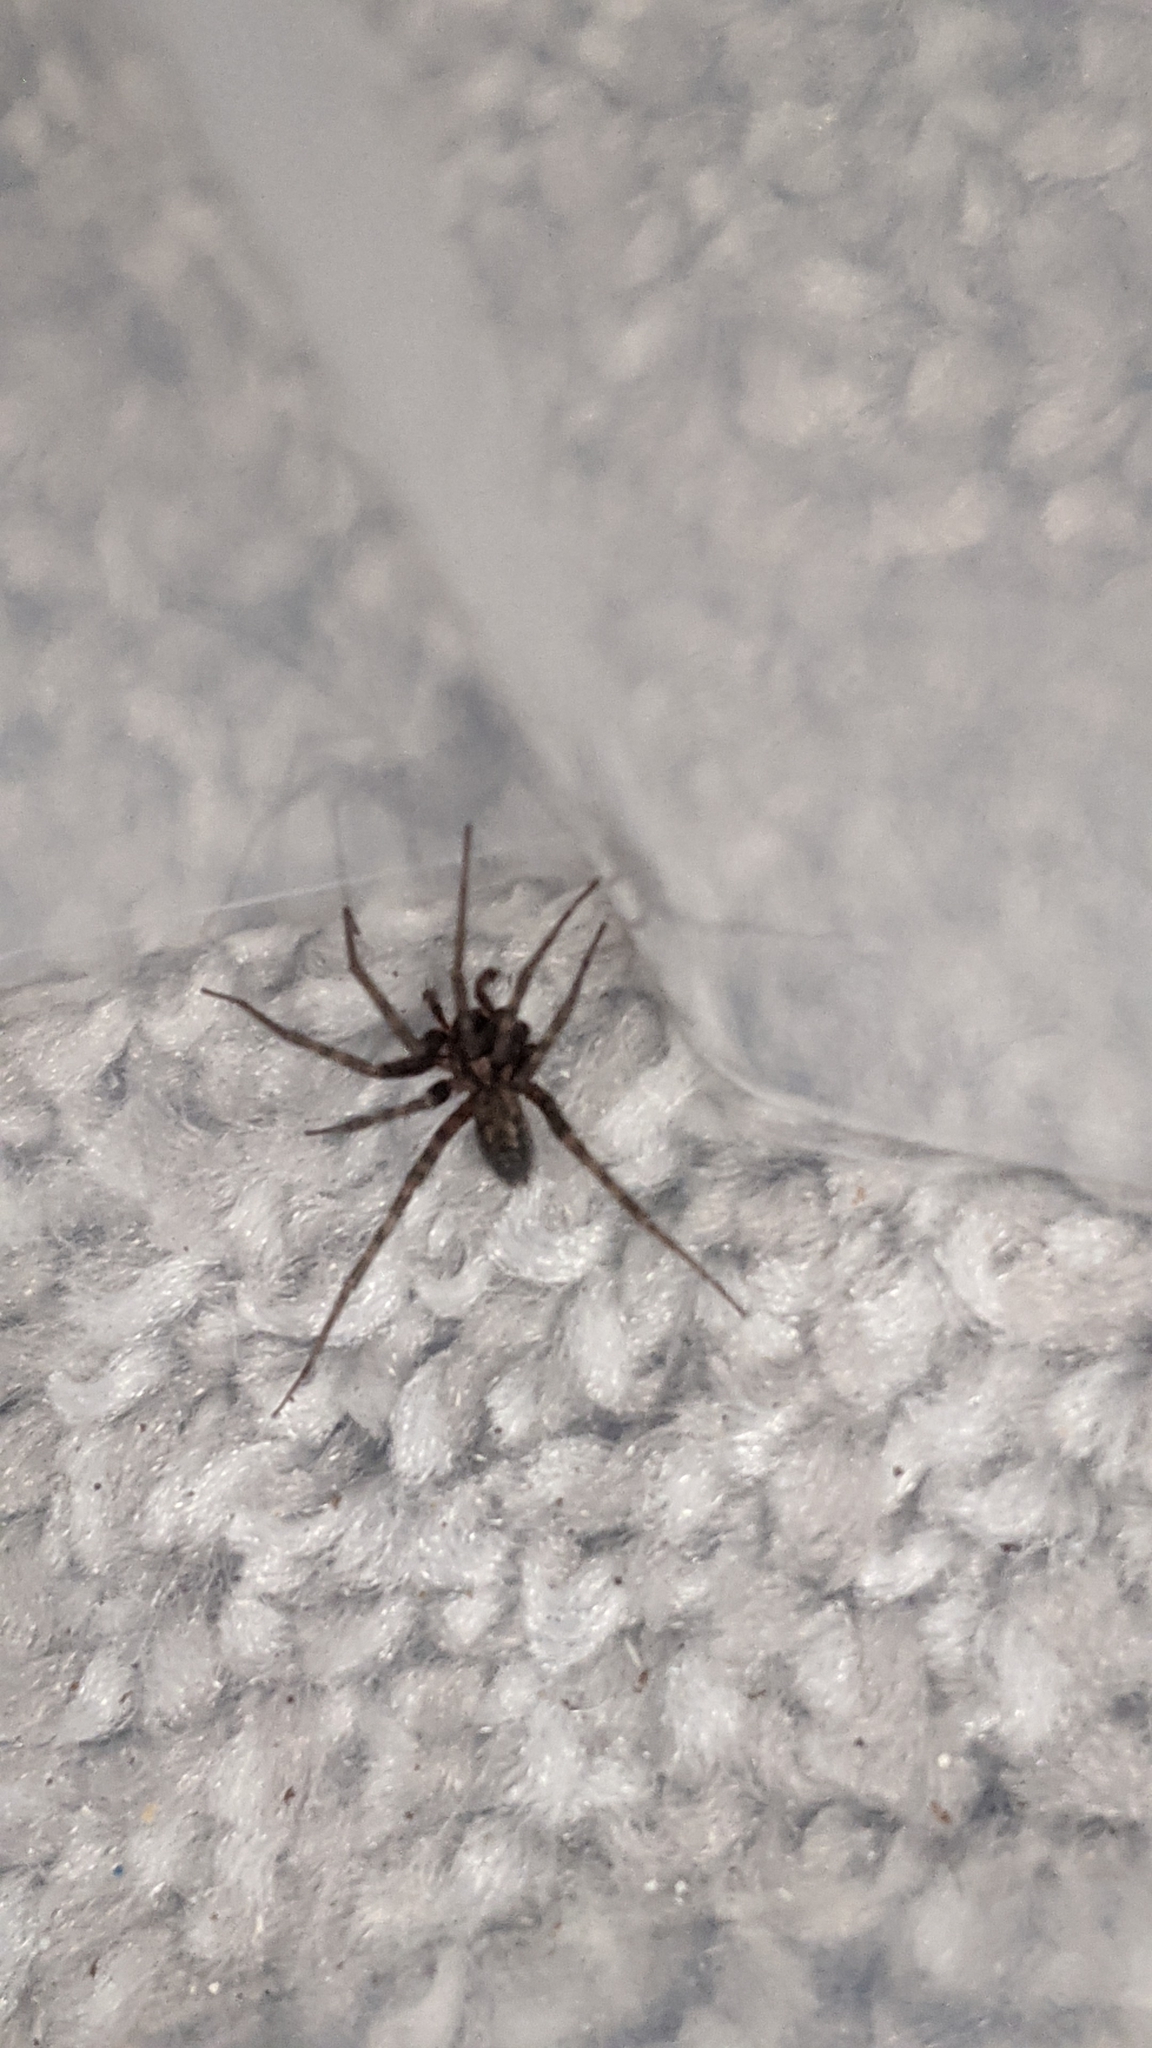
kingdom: Animalia
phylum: Arthropoda
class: Arachnida
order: Araneae
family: Agelenidae
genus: Tegenaria
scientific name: Tegenaria domestica
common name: Barn funnel weaver
